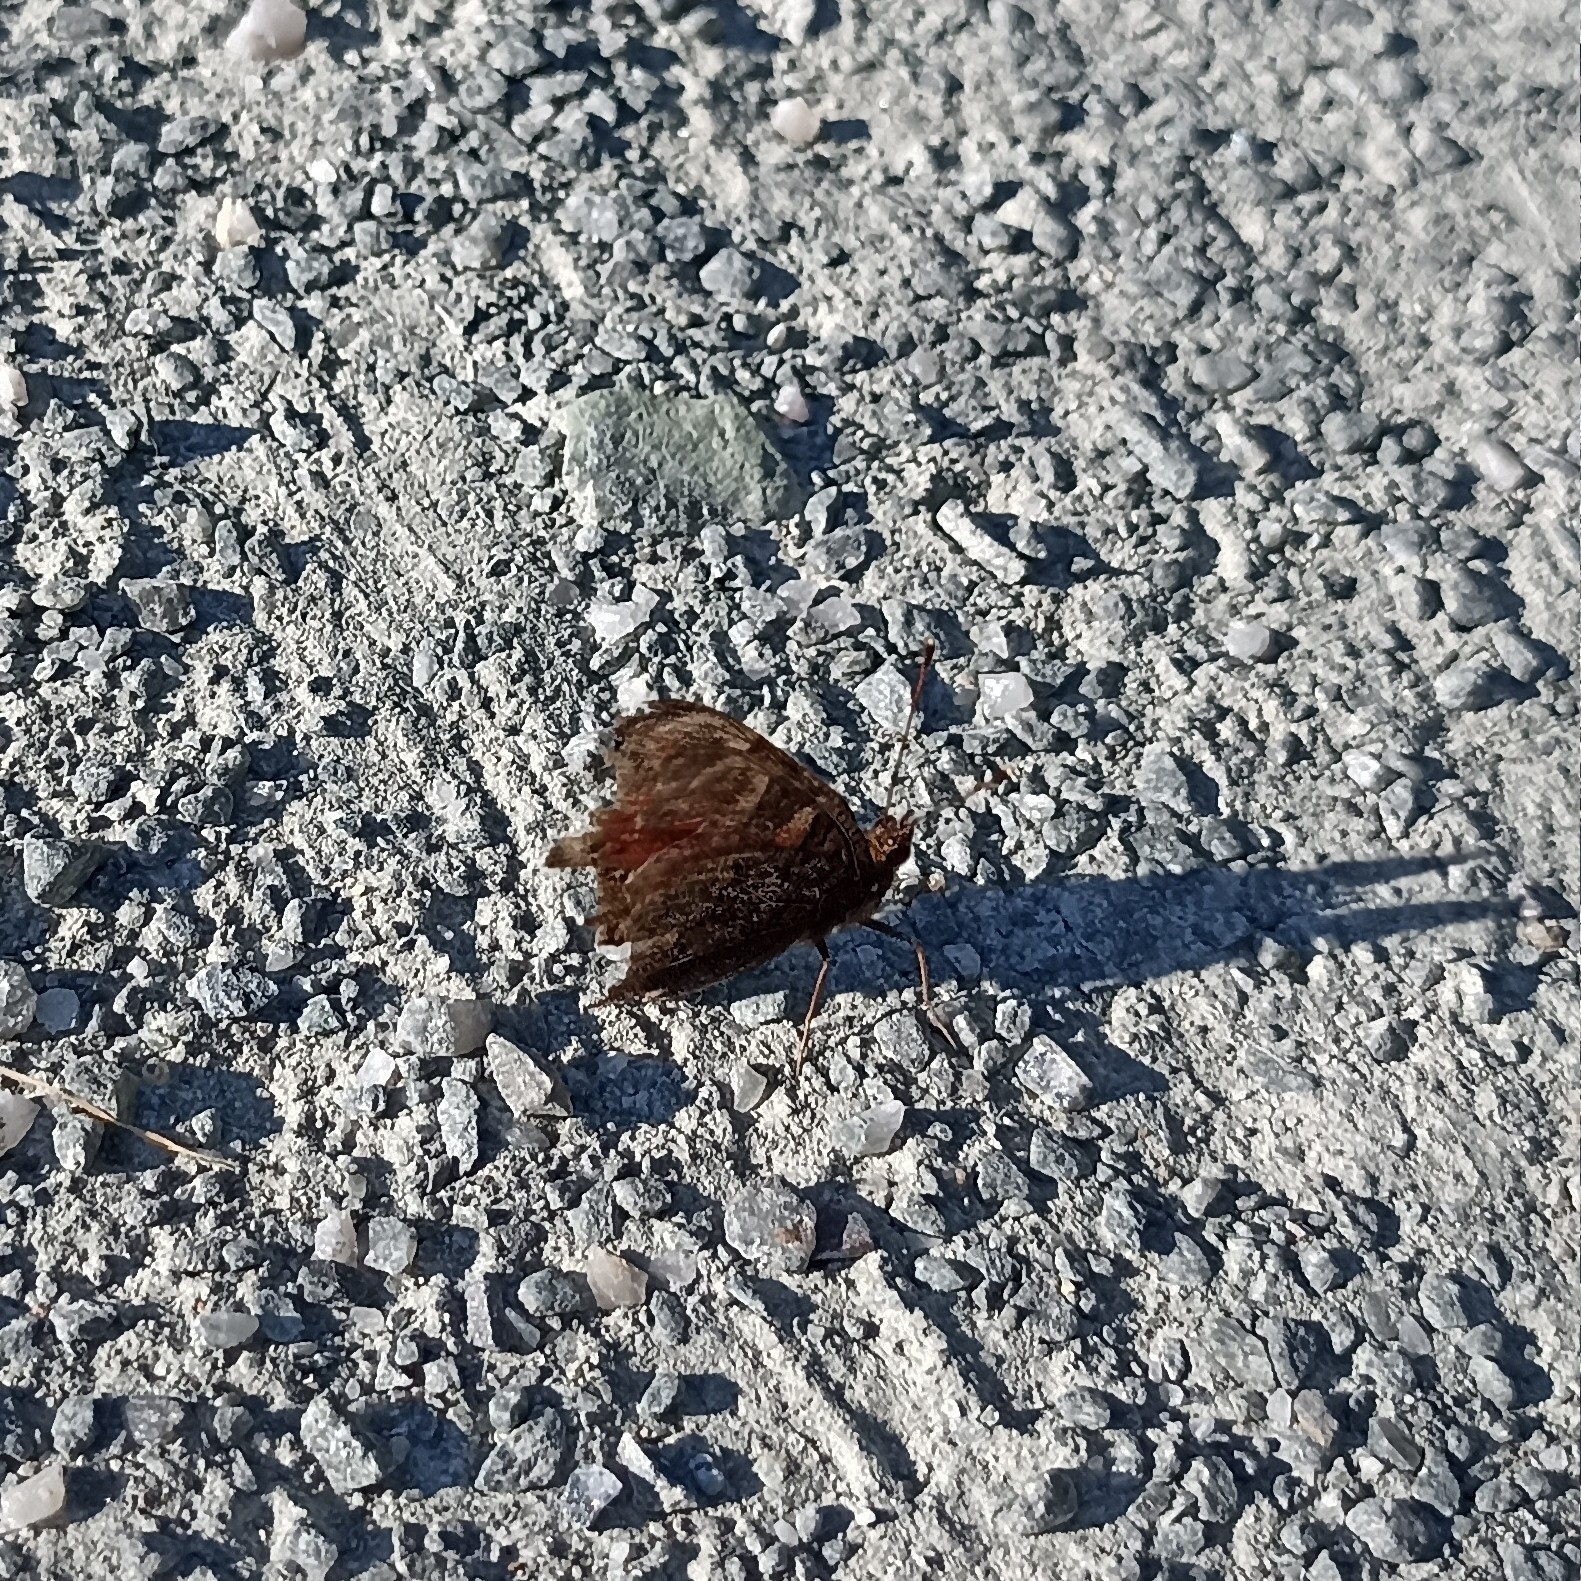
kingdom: Animalia
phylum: Arthropoda
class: Insecta
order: Lepidoptera
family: Nymphalidae
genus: Aglais
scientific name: Aglais io
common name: Peacock
